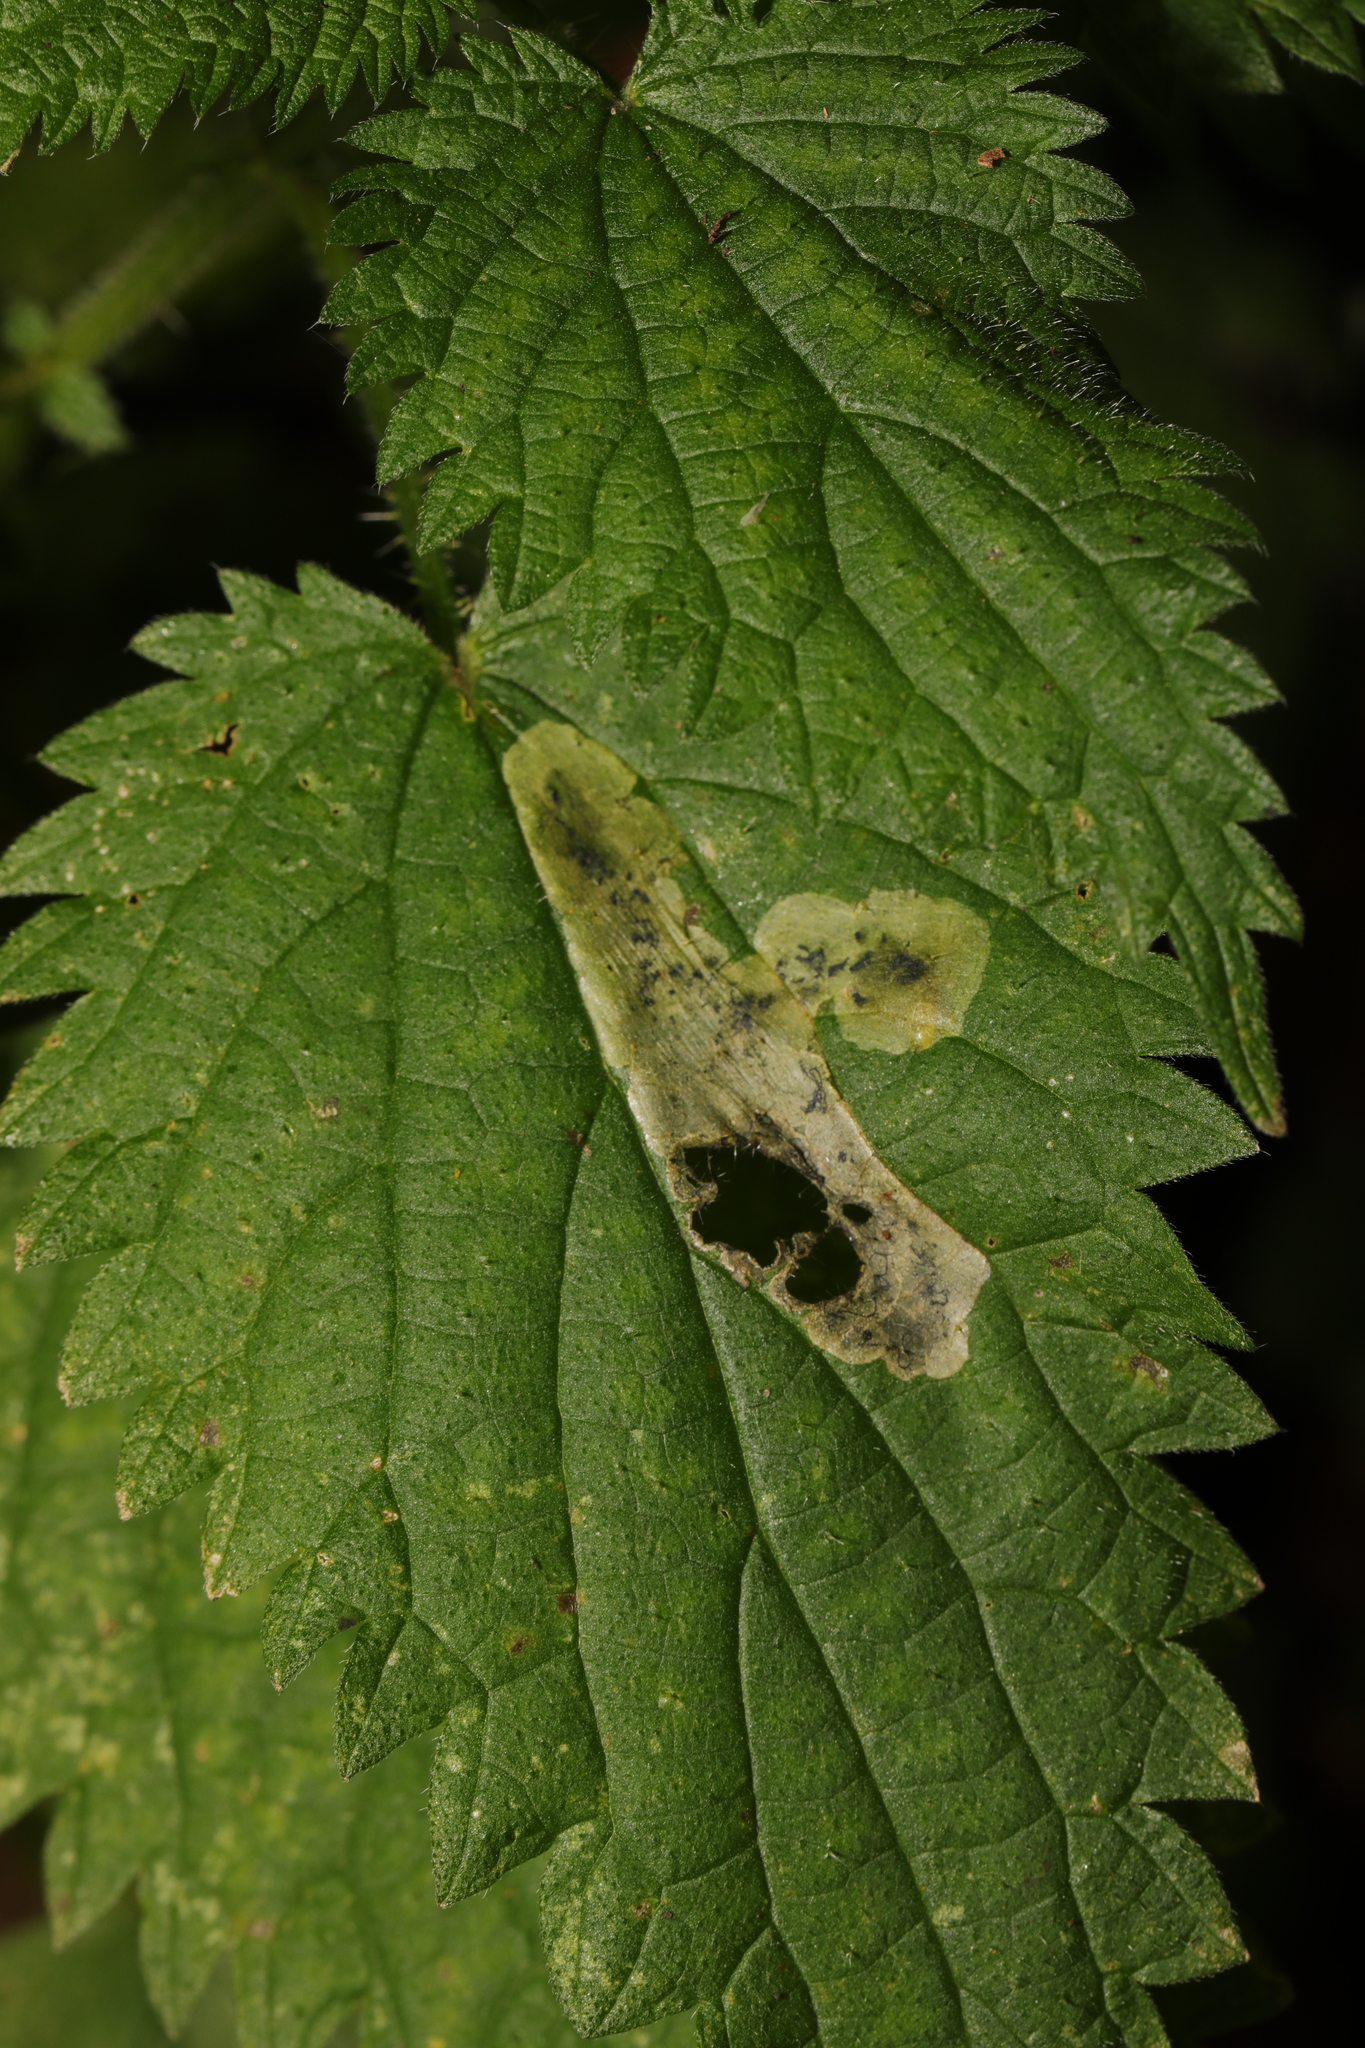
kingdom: Animalia
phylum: Arthropoda
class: Insecta
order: Diptera
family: Agromyzidae
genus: Agromyza
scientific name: Agromyza anthracina
